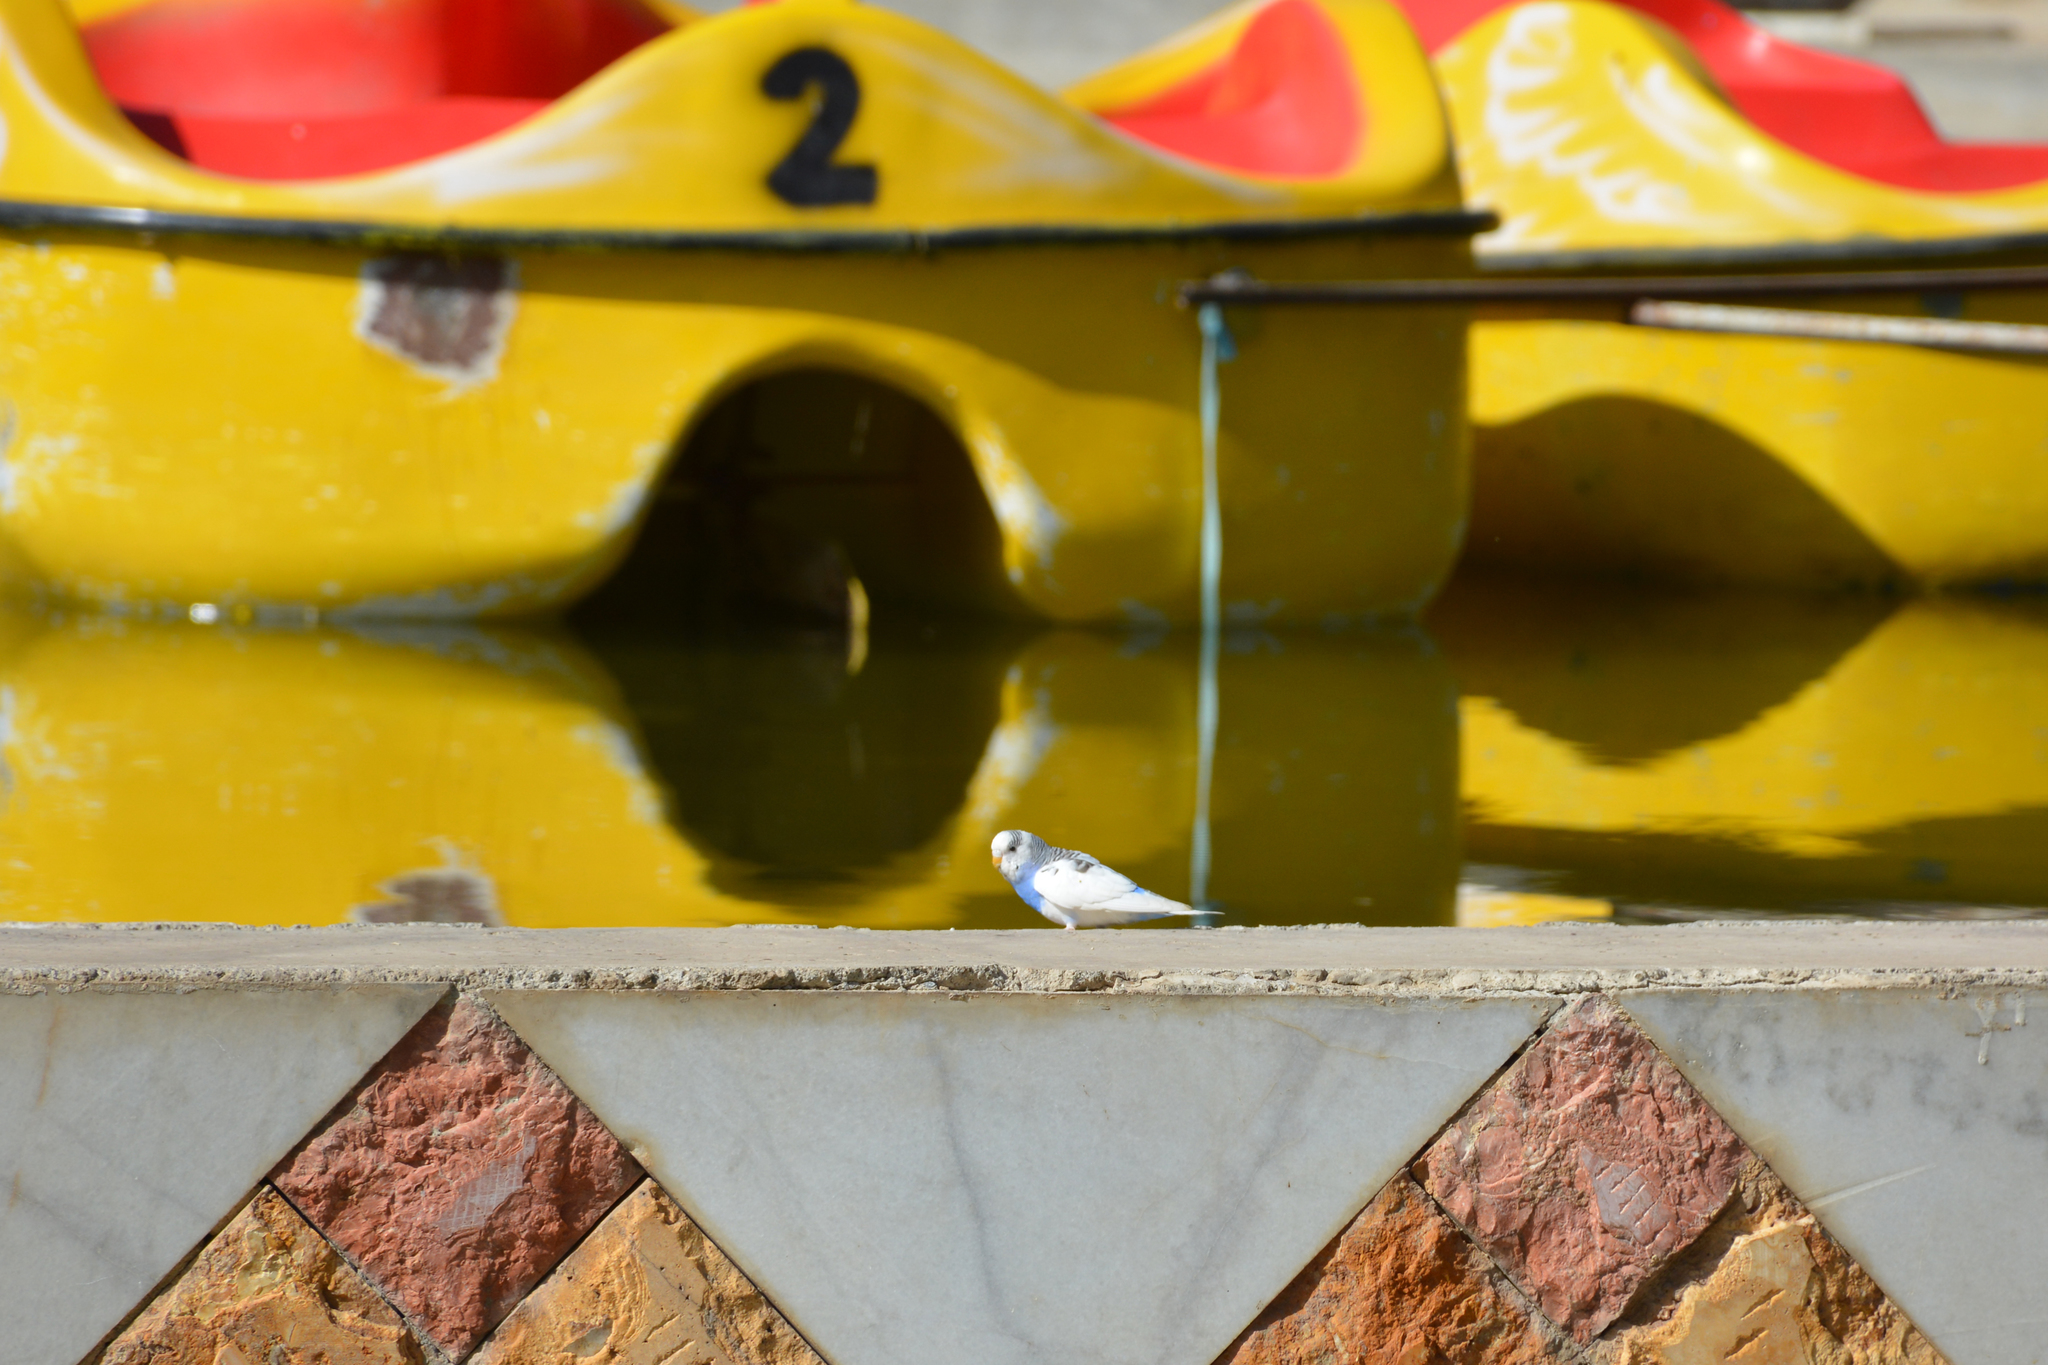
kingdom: Animalia
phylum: Chordata
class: Aves
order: Psittaciformes
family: Psittacidae
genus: Melopsittacus
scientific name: Melopsittacus undulatus
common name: Budgerigar
